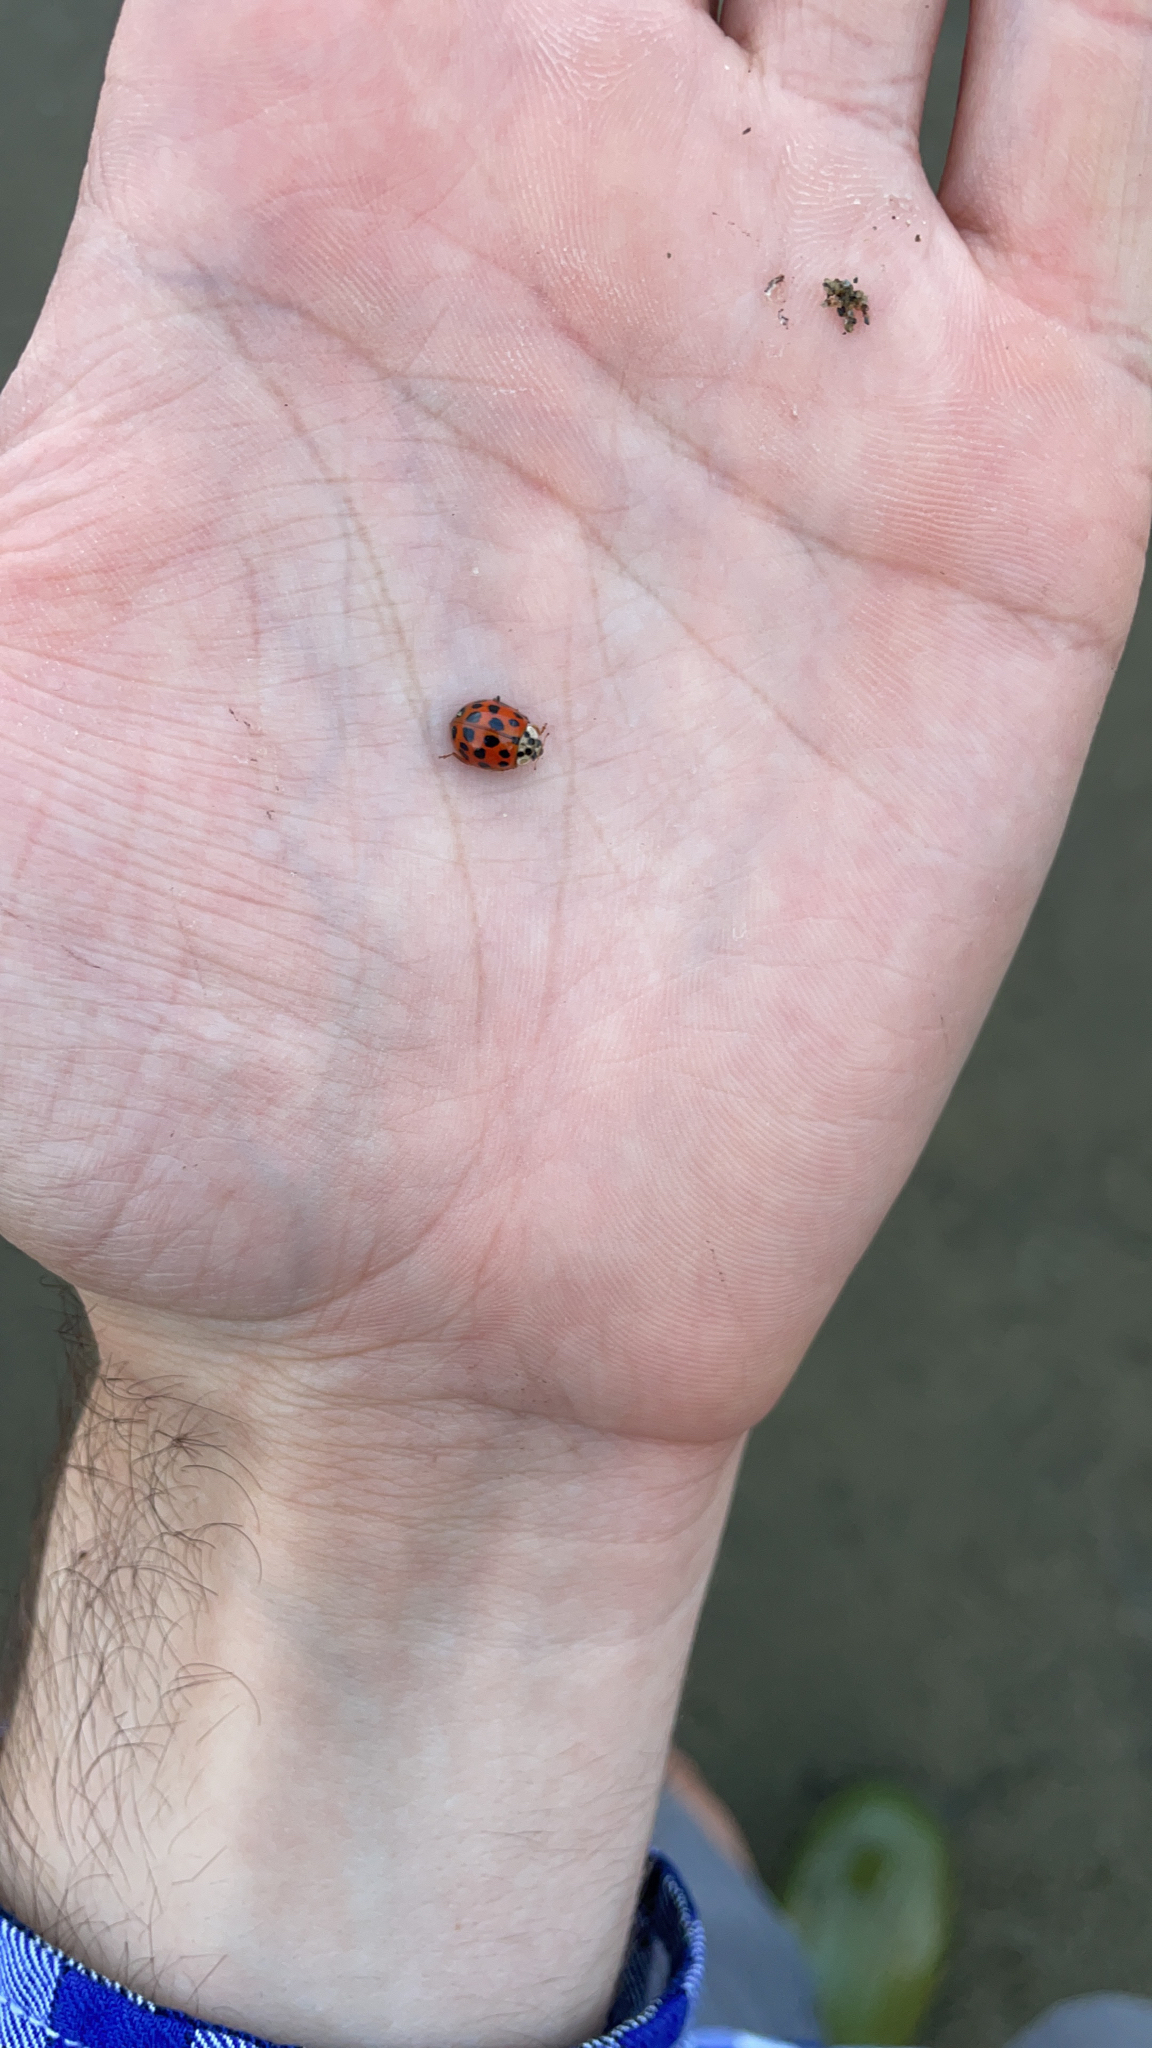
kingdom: Animalia
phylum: Arthropoda
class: Insecta
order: Coleoptera
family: Coccinellidae
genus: Harmonia
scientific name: Harmonia axyridis
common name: Harlequin ladybird
